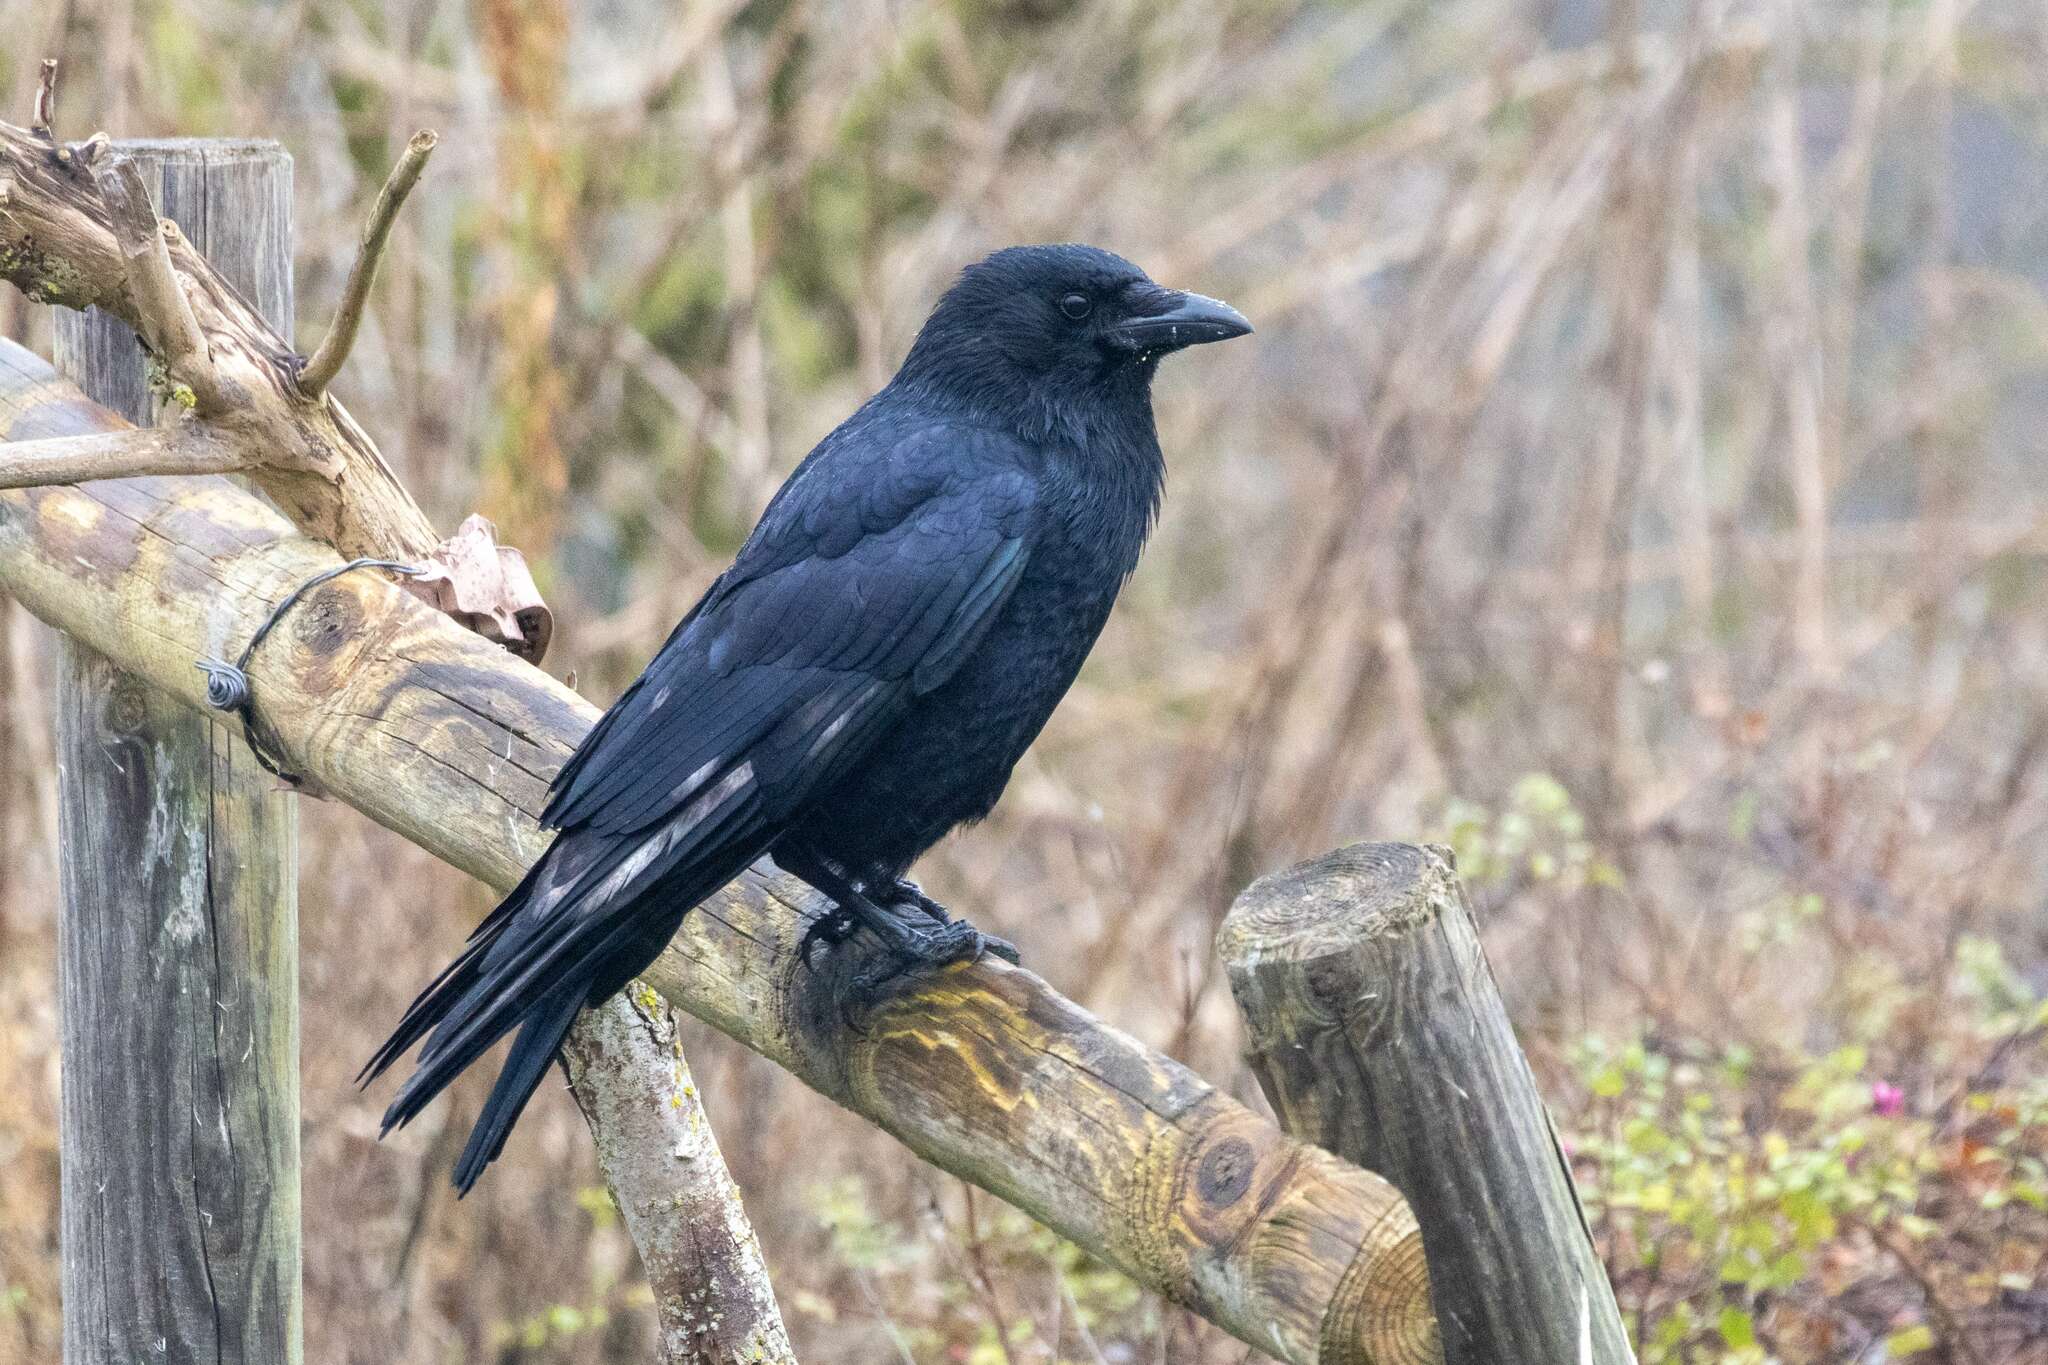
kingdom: Animalia
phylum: Chordata
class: Aves
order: Passeriformes
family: Corvidae
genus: Corvus
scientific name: Corvus corone
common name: Carrion crow
